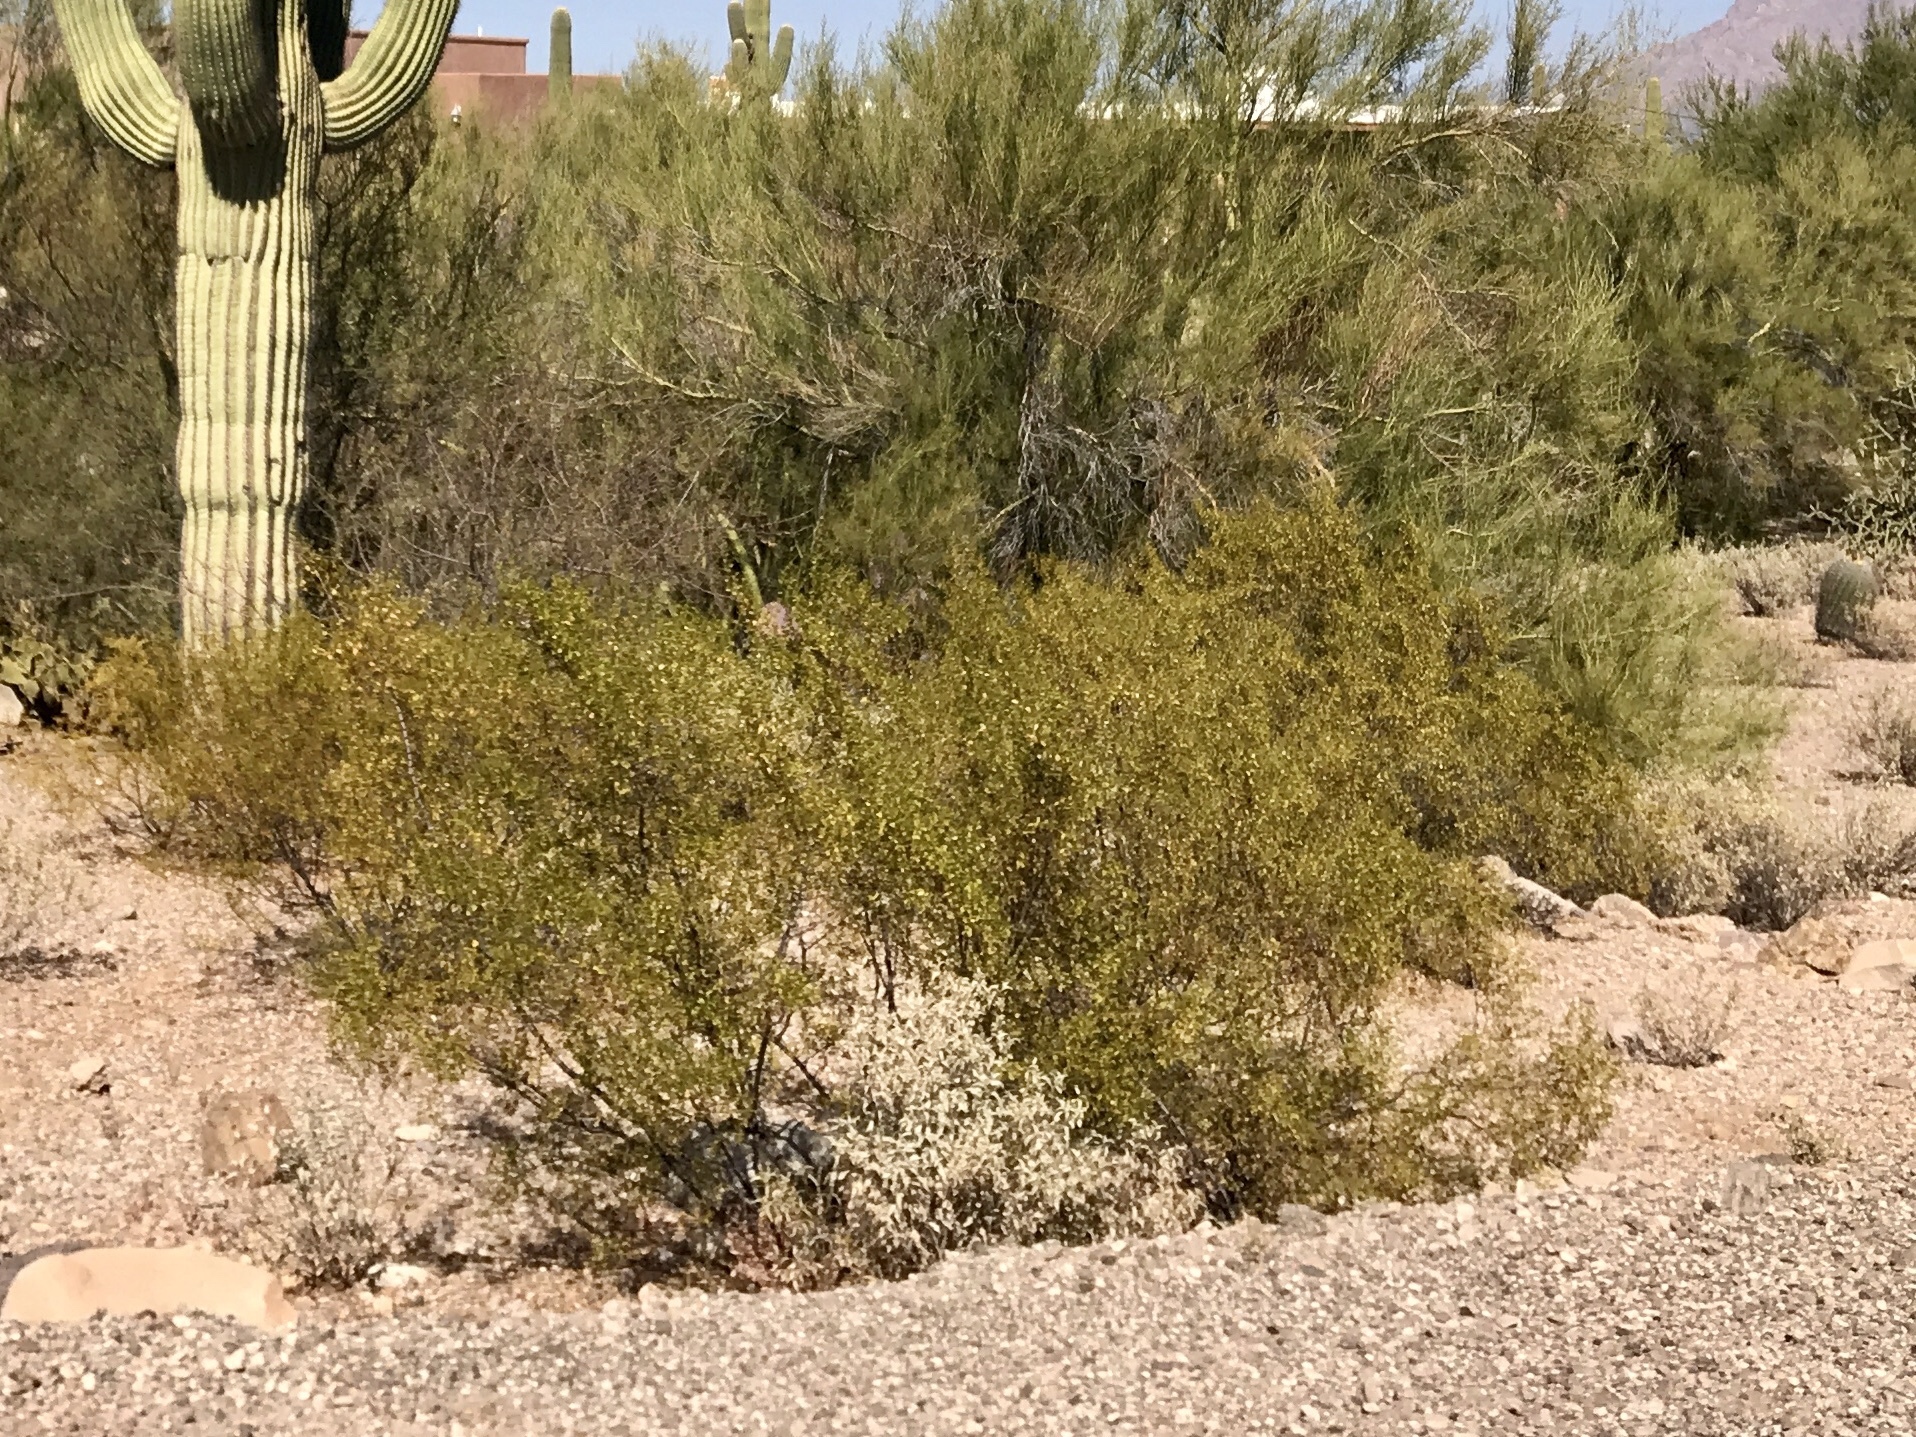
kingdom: Plantae
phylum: Tracheophyta
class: Magnoliopsida
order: Zygophyllales
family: Zygophyllaceae
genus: Larrea
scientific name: Larrea tridentata
